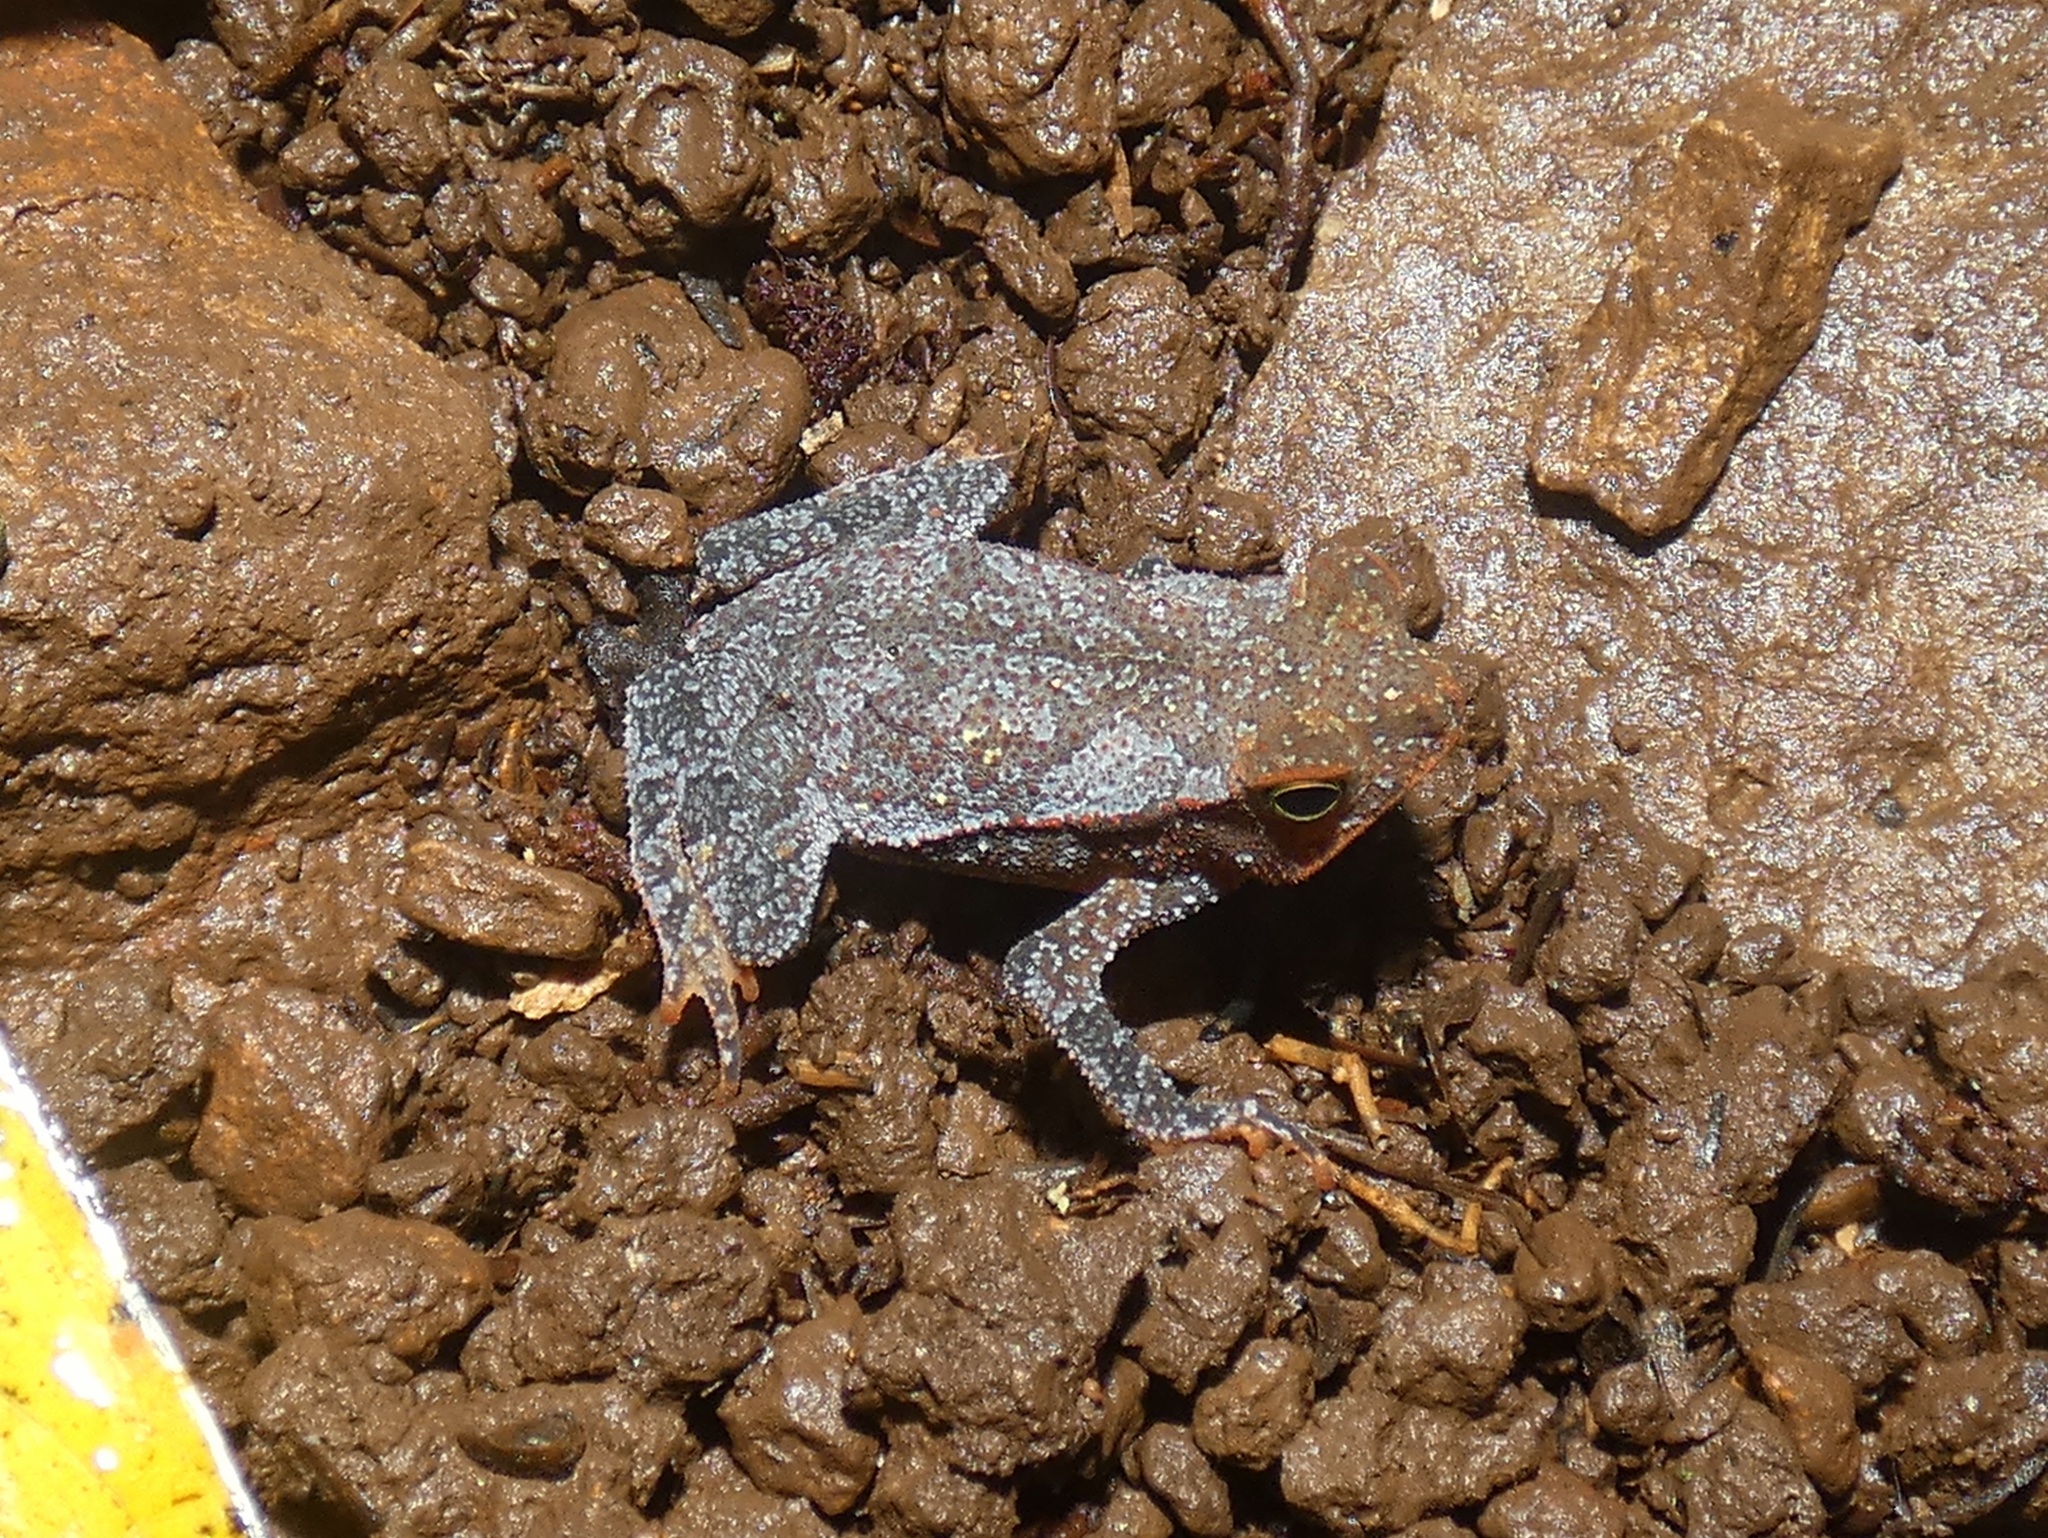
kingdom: Animalia
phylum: Chordata
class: Amphibia
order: Anura
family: Bufonidae
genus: Rhinella
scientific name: Rhinella alata
